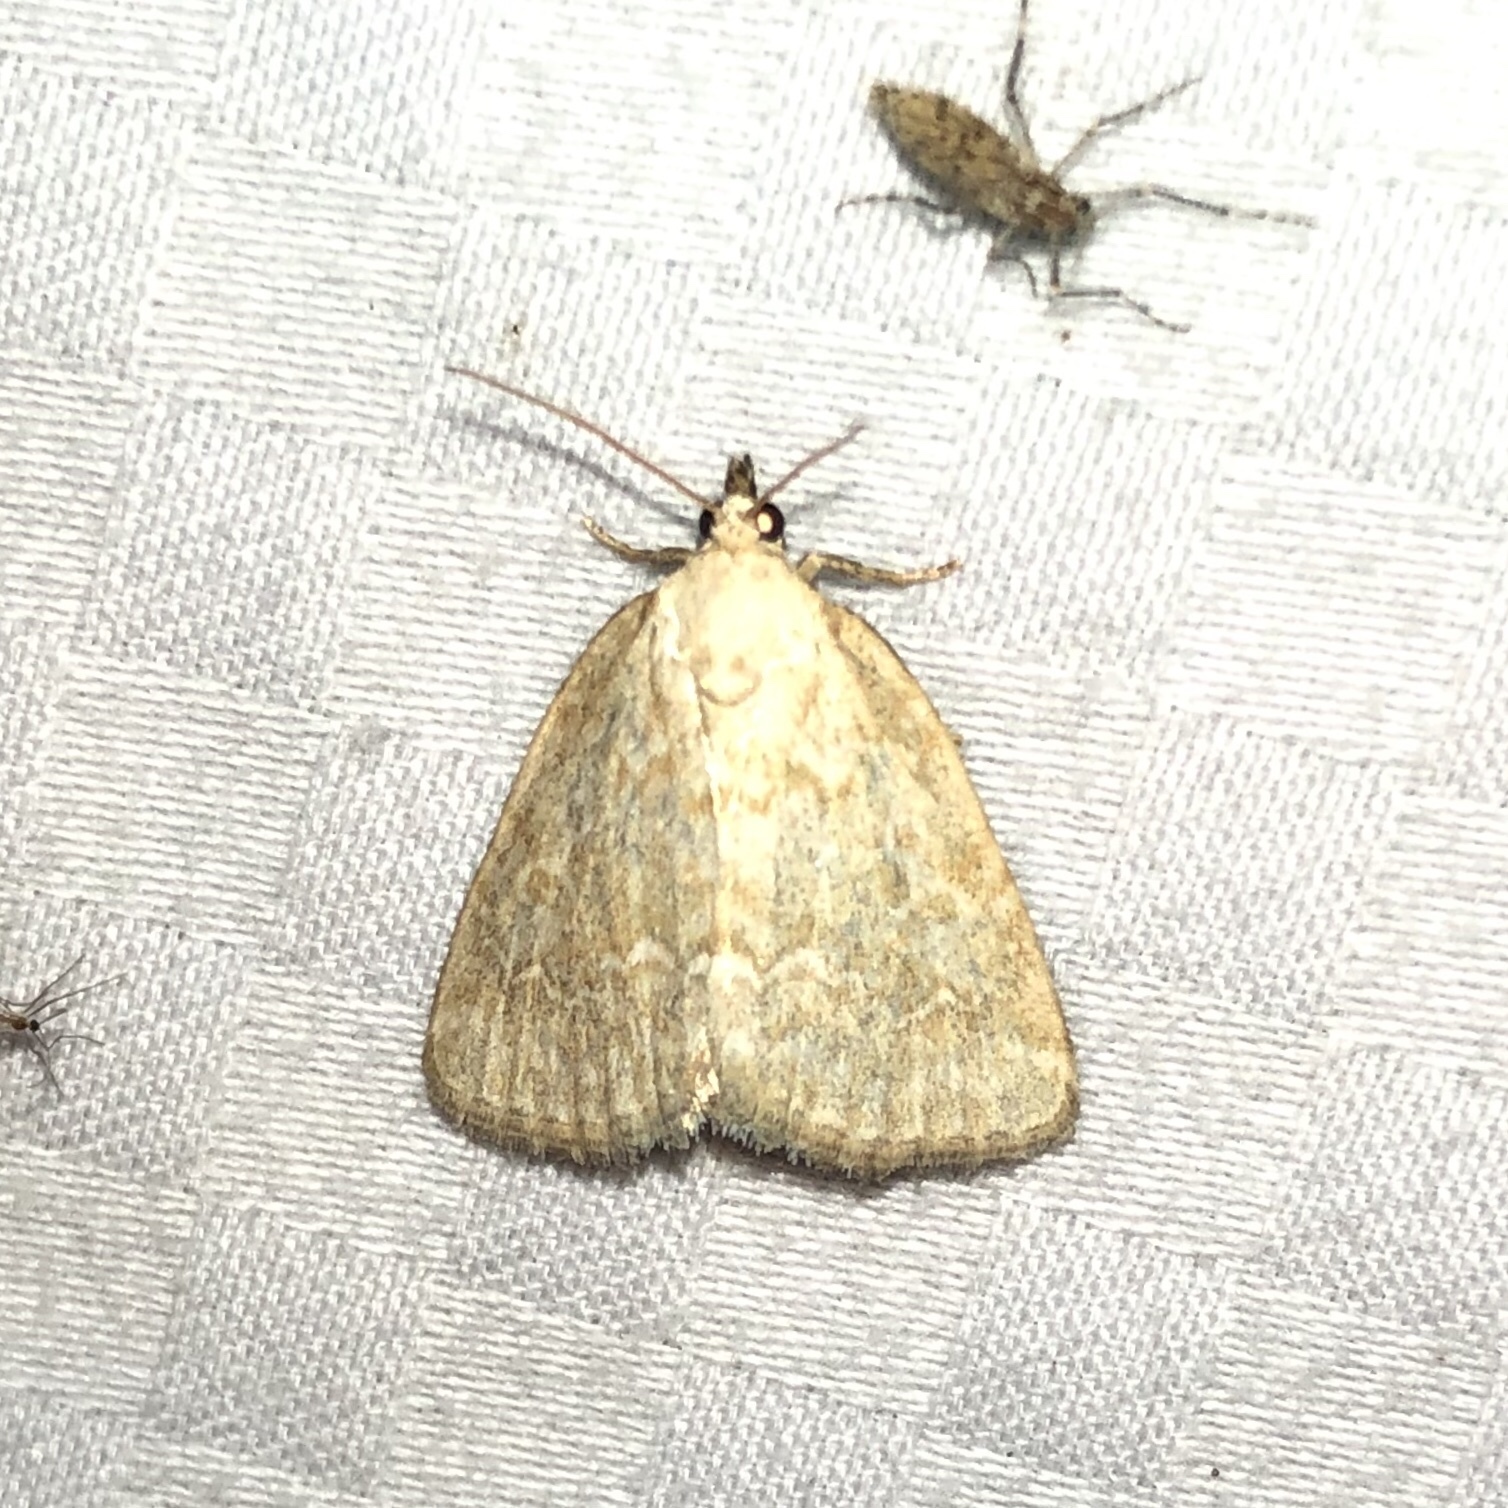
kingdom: Animalia
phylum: Arthropoda
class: Insecta
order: Lepidoptera
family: Noctuidae
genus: Protodeltote
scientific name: Protodeltote albidula
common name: Pale glyph
